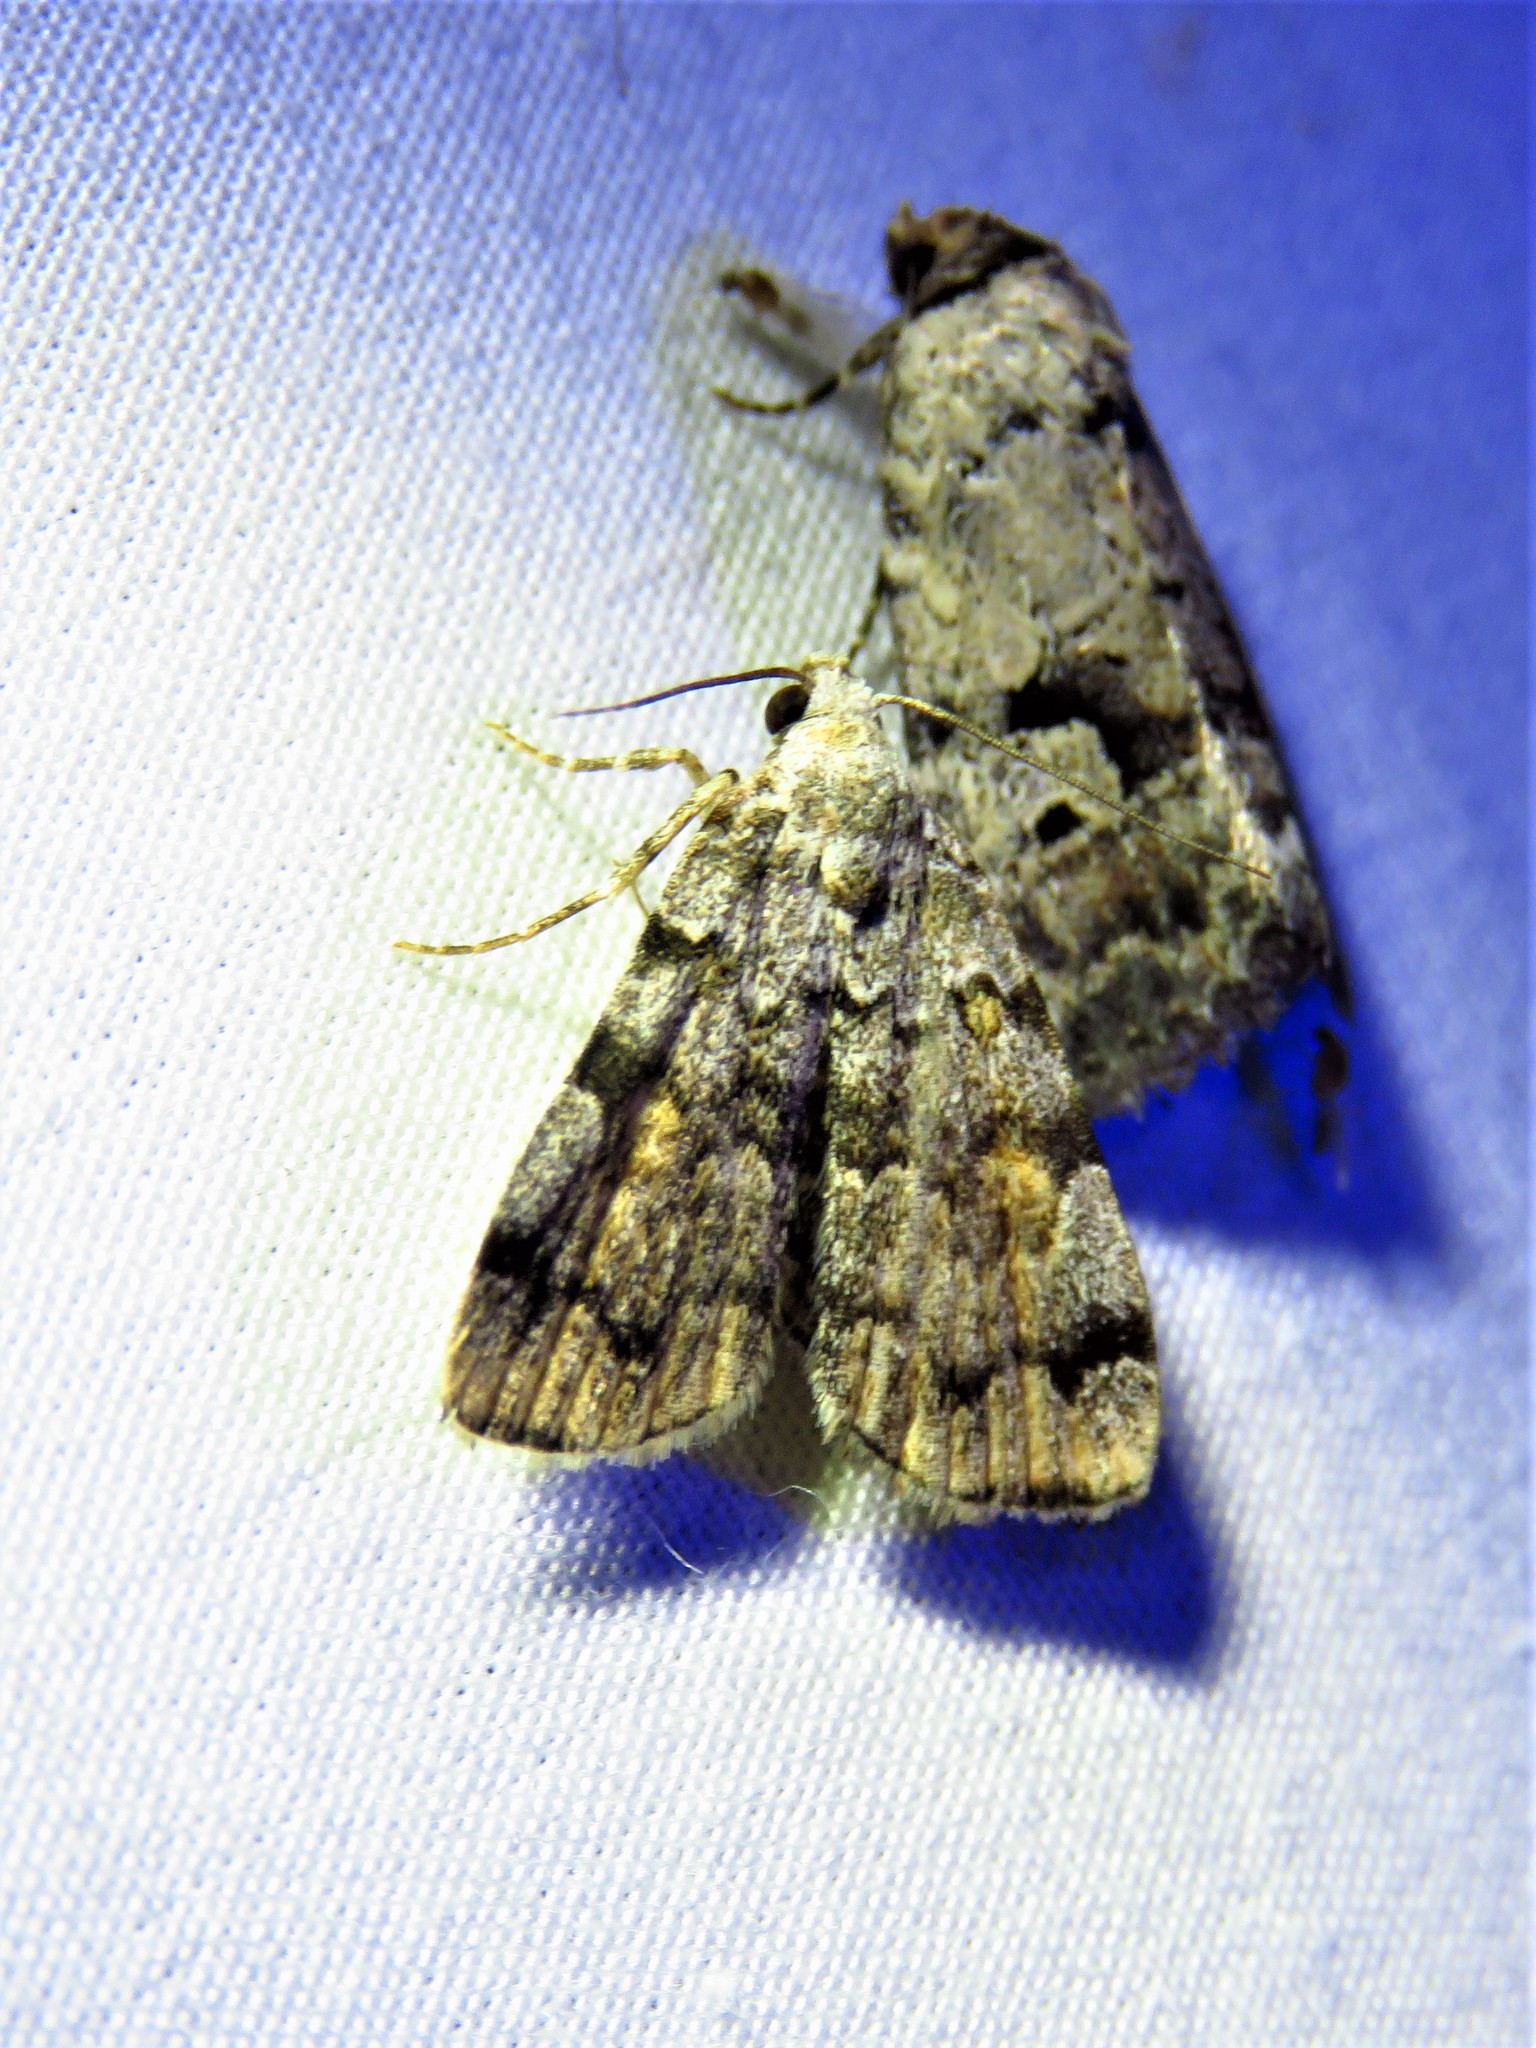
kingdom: Animalia
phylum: Arthropoda
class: Insecta
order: Lepidoptera
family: Erebidae
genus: Idia
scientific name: Idia americalis
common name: American idia moth
